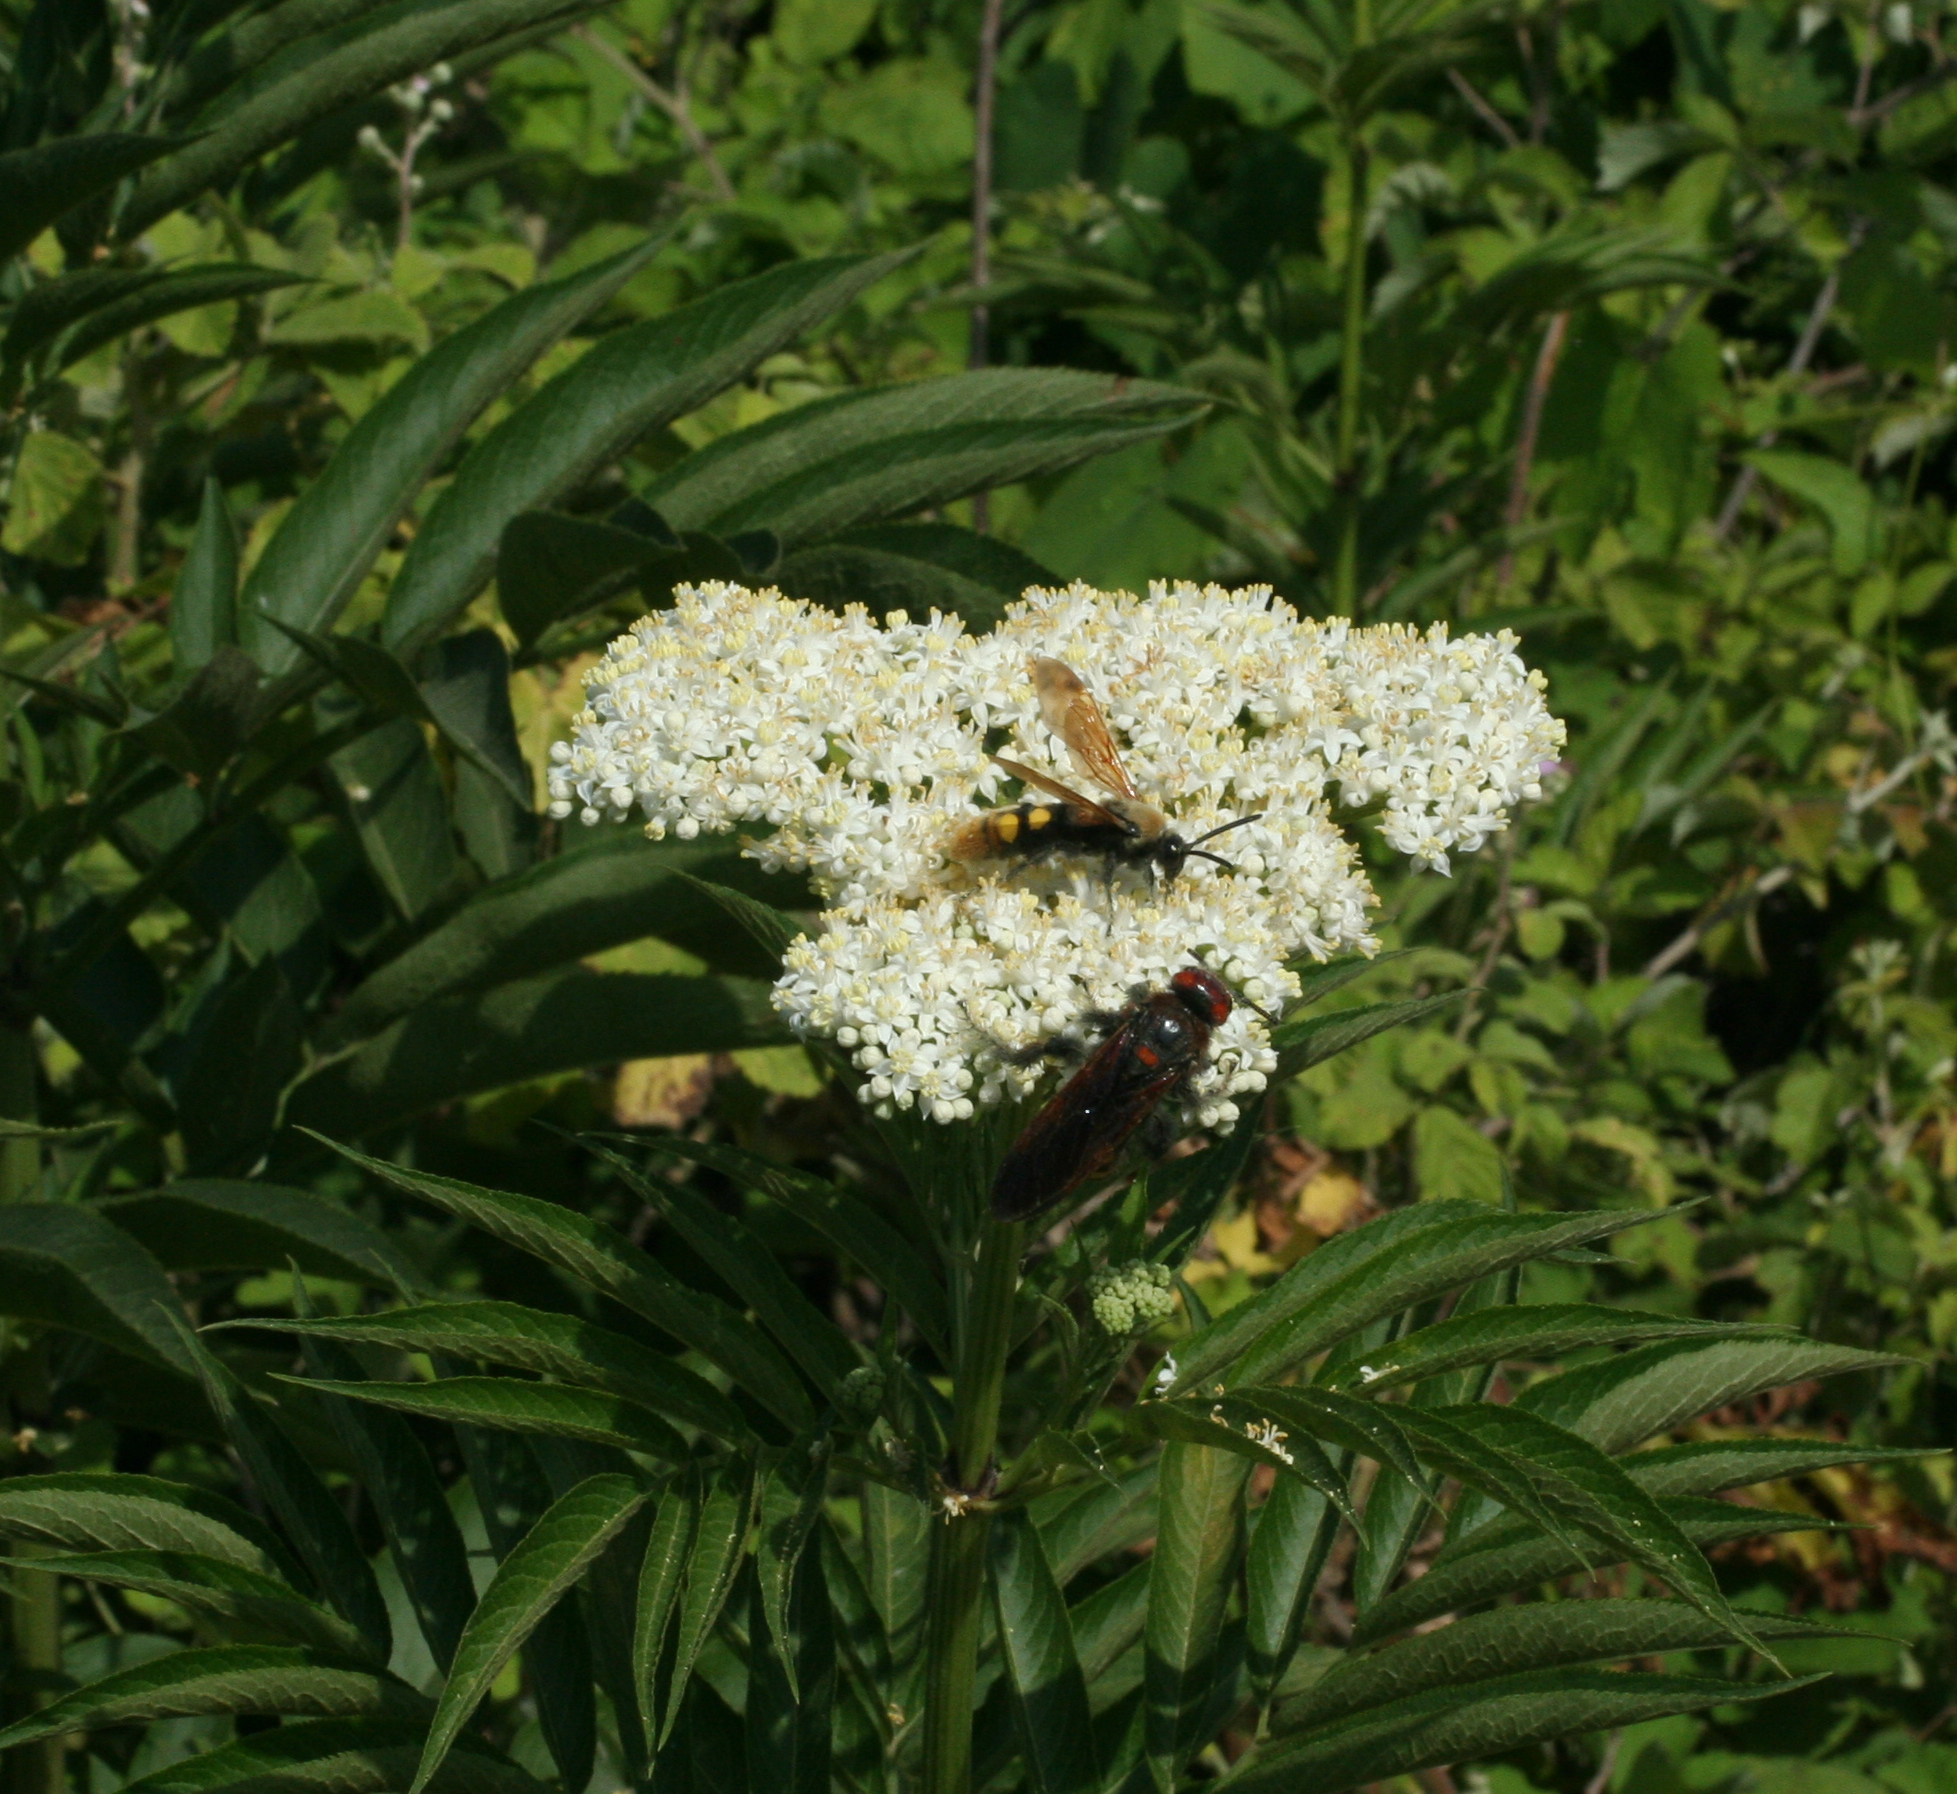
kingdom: Animalia
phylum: Arthropoda
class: Insecta
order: Hymenoptera
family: Scoliidae
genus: Megascolia
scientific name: Megascolia maculata
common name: Mammoth wasp
